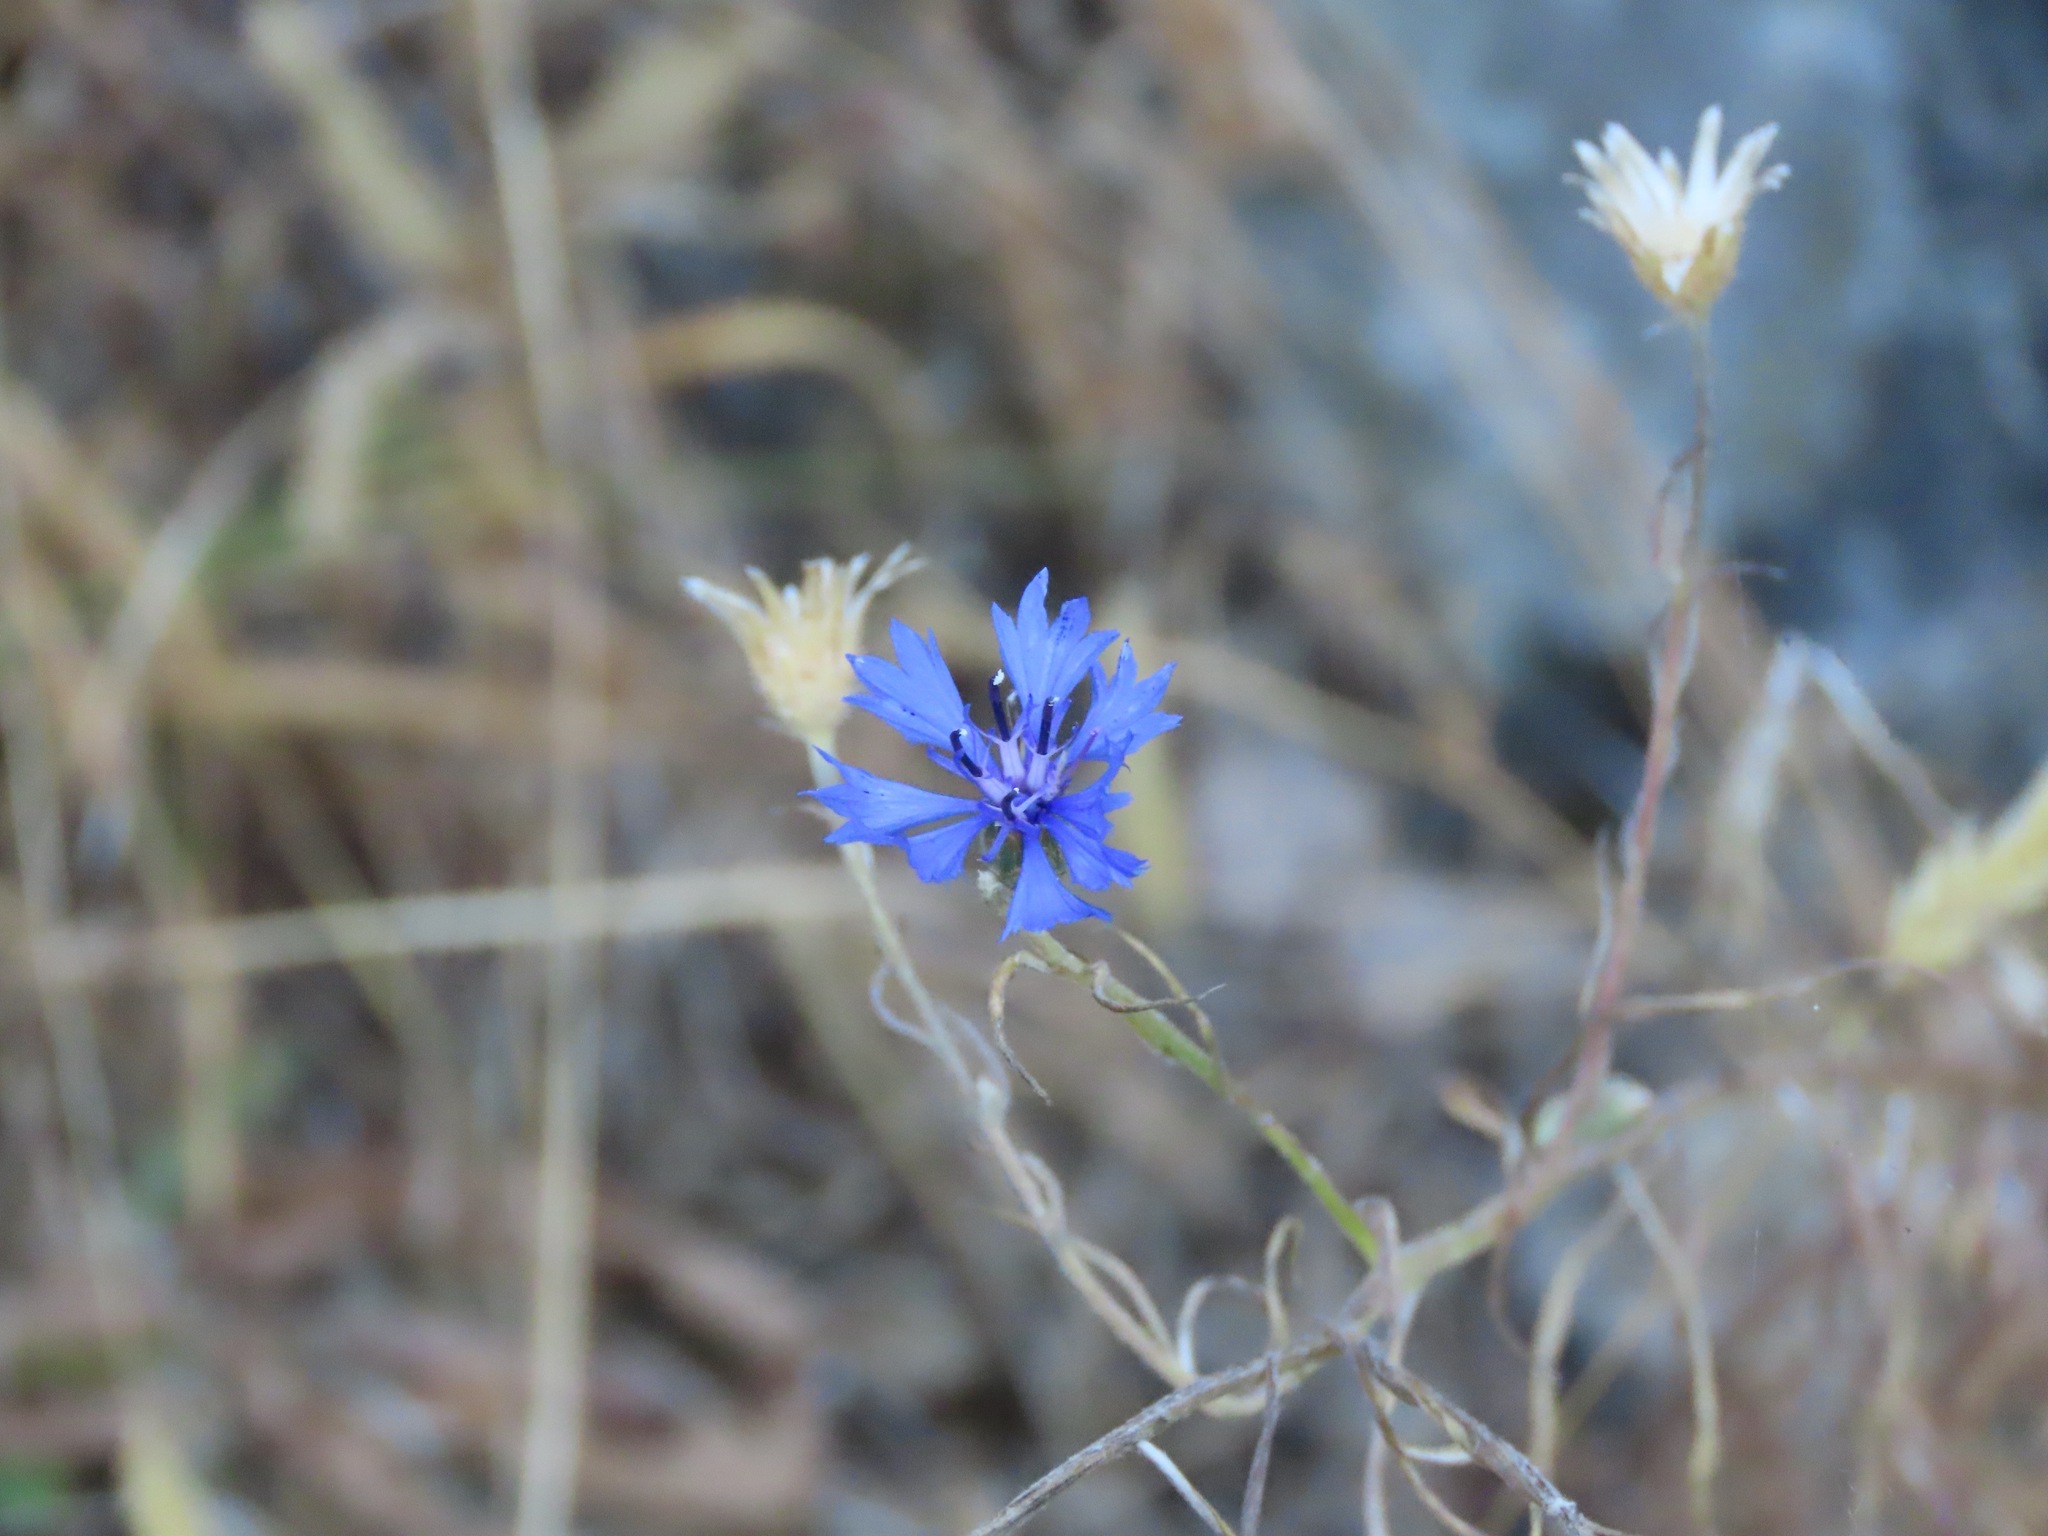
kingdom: Plantae
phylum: Tracheophyta
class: Magnoliopsida
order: Asterales
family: Asteraceae
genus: Centaurea
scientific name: Centaurea cyanus
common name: Cornflower
